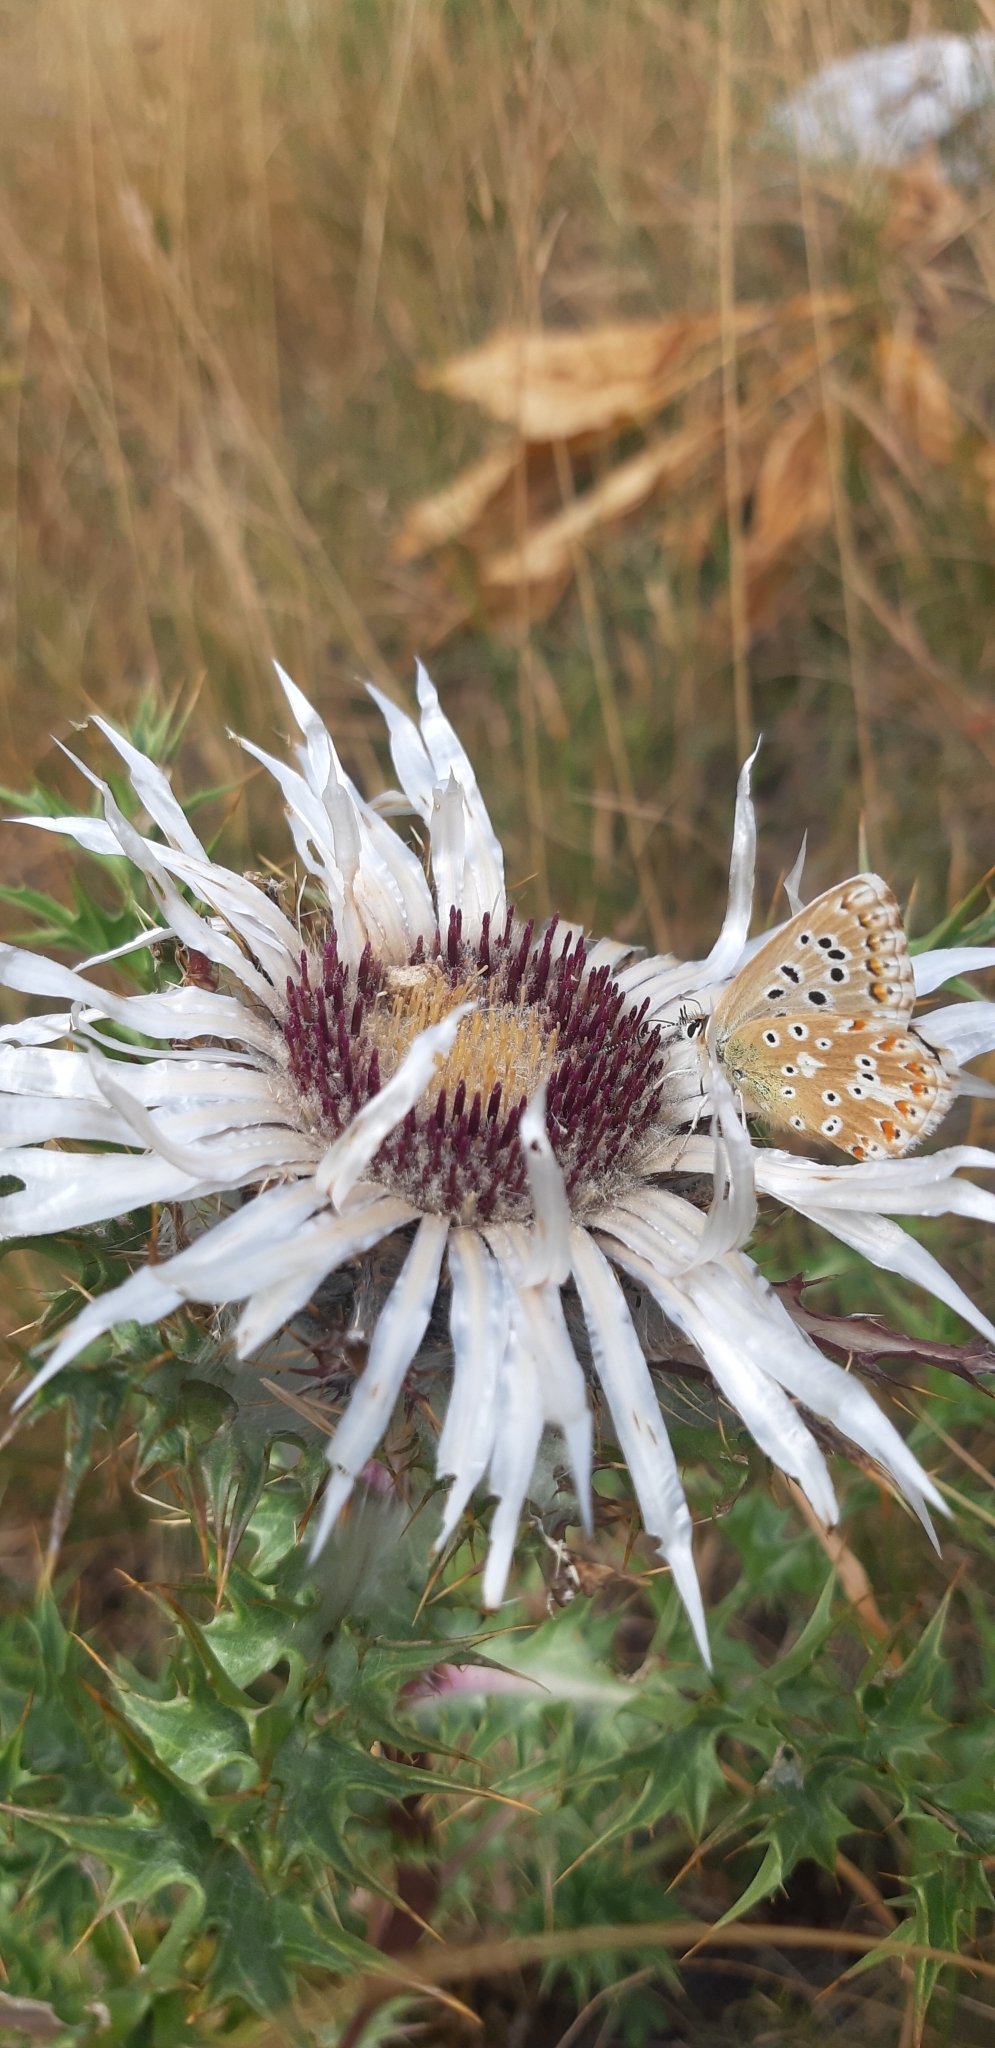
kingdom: Animalia
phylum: Arthropoda
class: Insecta
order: Lepidoptera
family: Lycaenidae
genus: Lysandra
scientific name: Lysandra coridon
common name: Chalkhill blue
